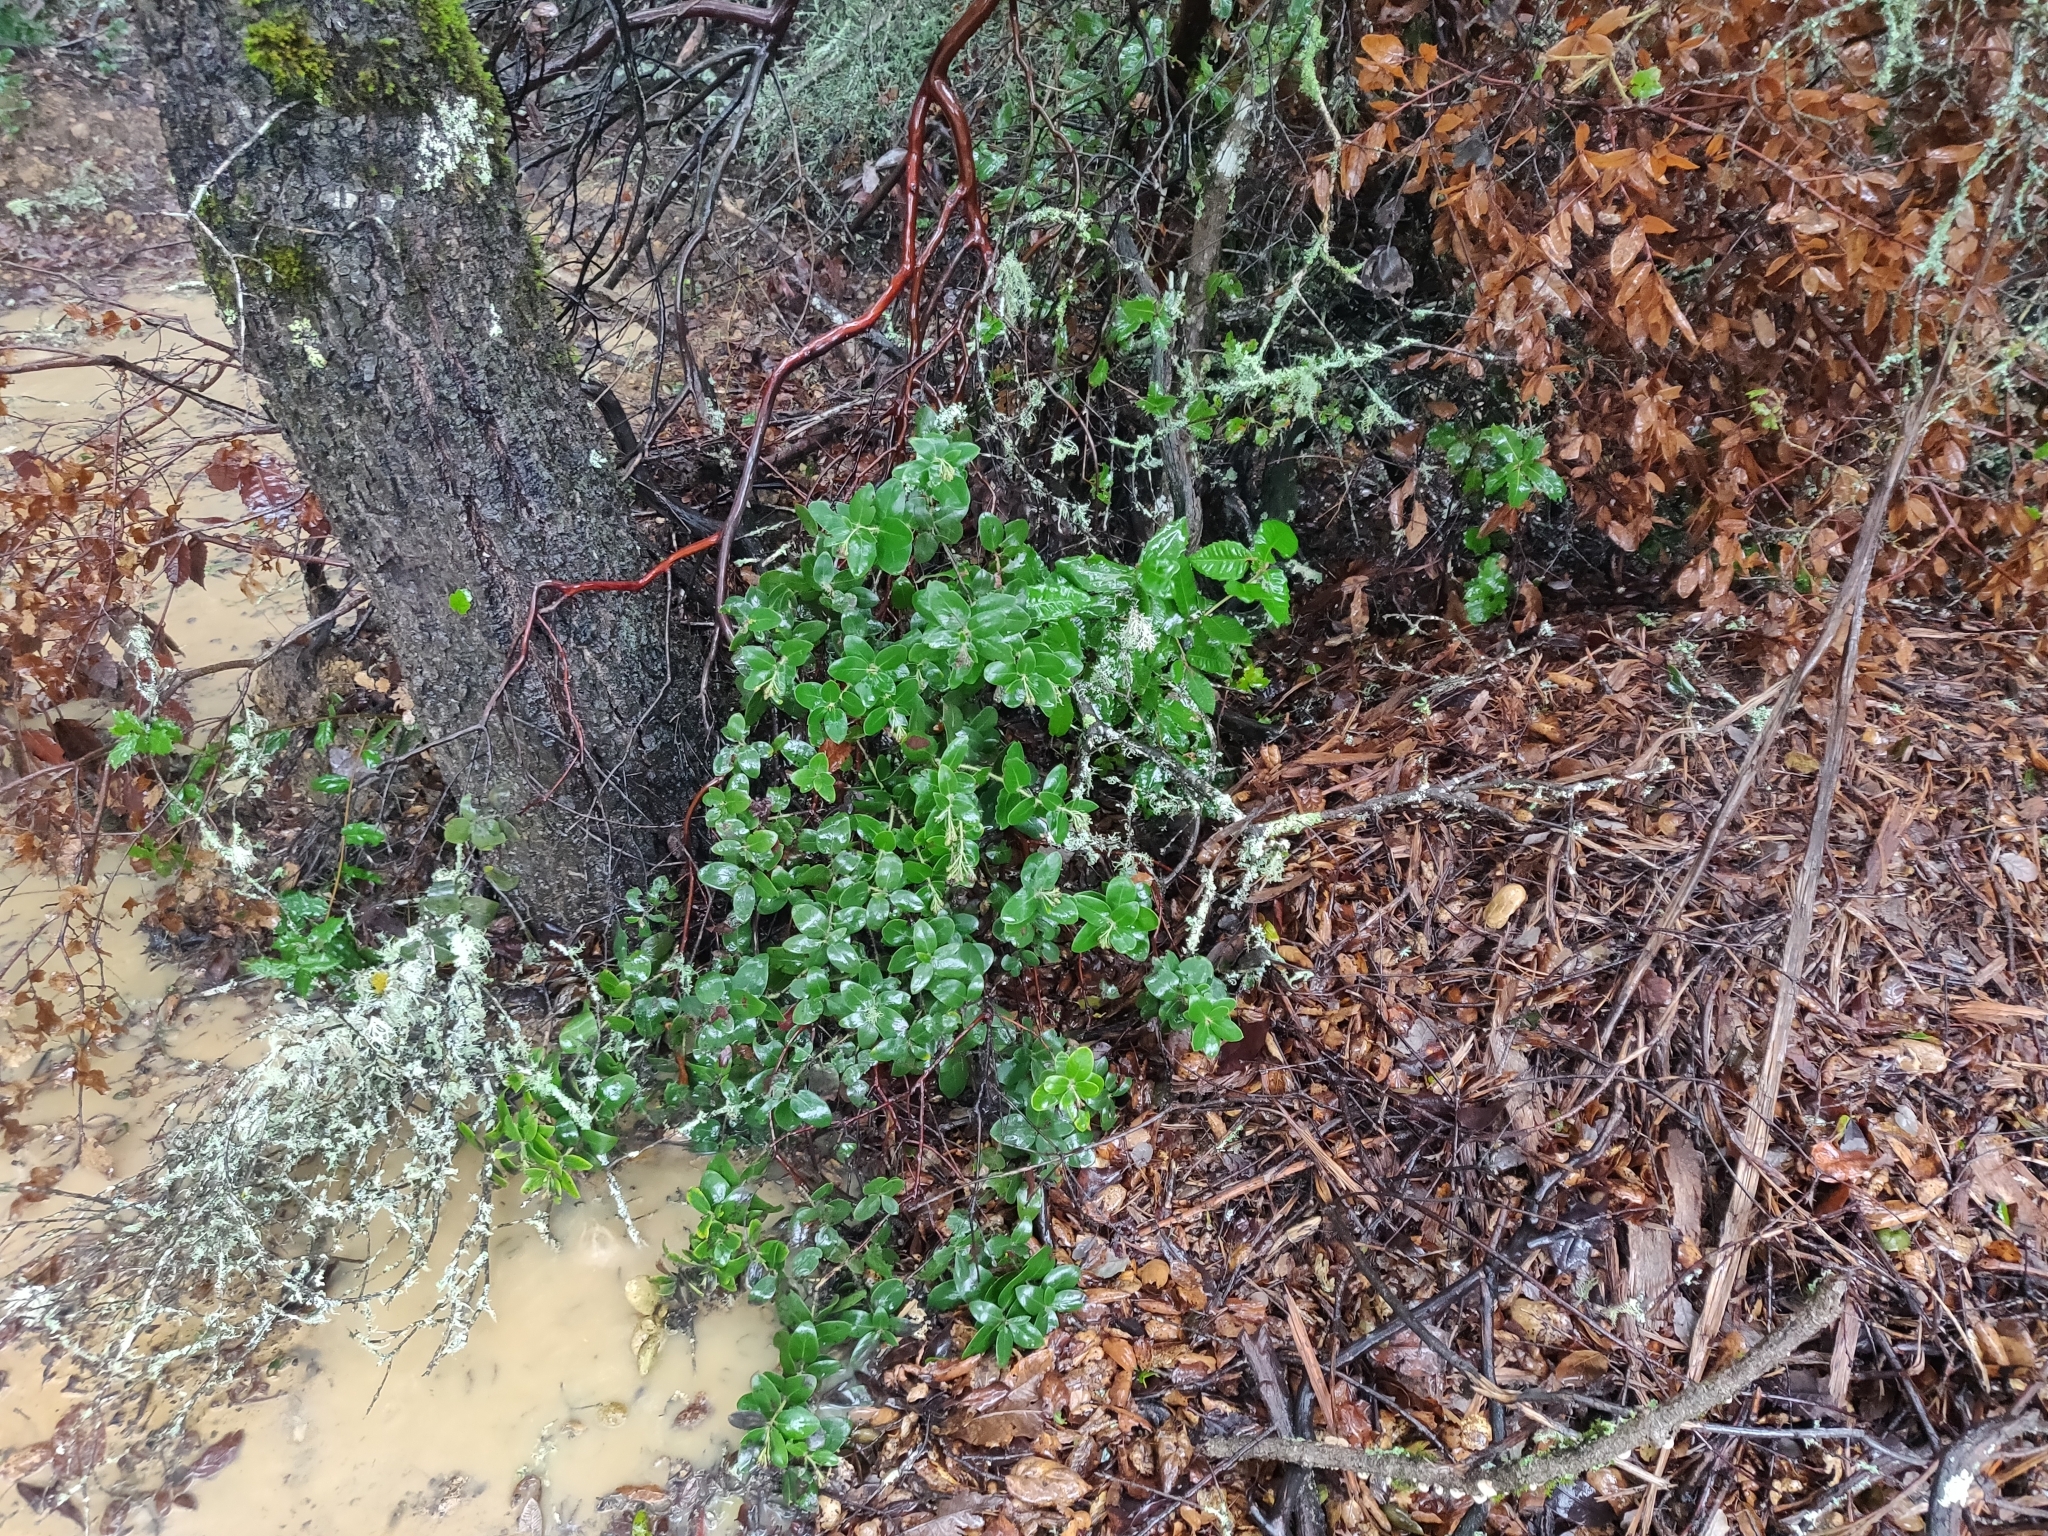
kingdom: Plantae
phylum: Tracheophyta
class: Magnoliopsida
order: Ericales
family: Ericaceae
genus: Arctostaphylos
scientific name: Arctostaphylos crustacea
